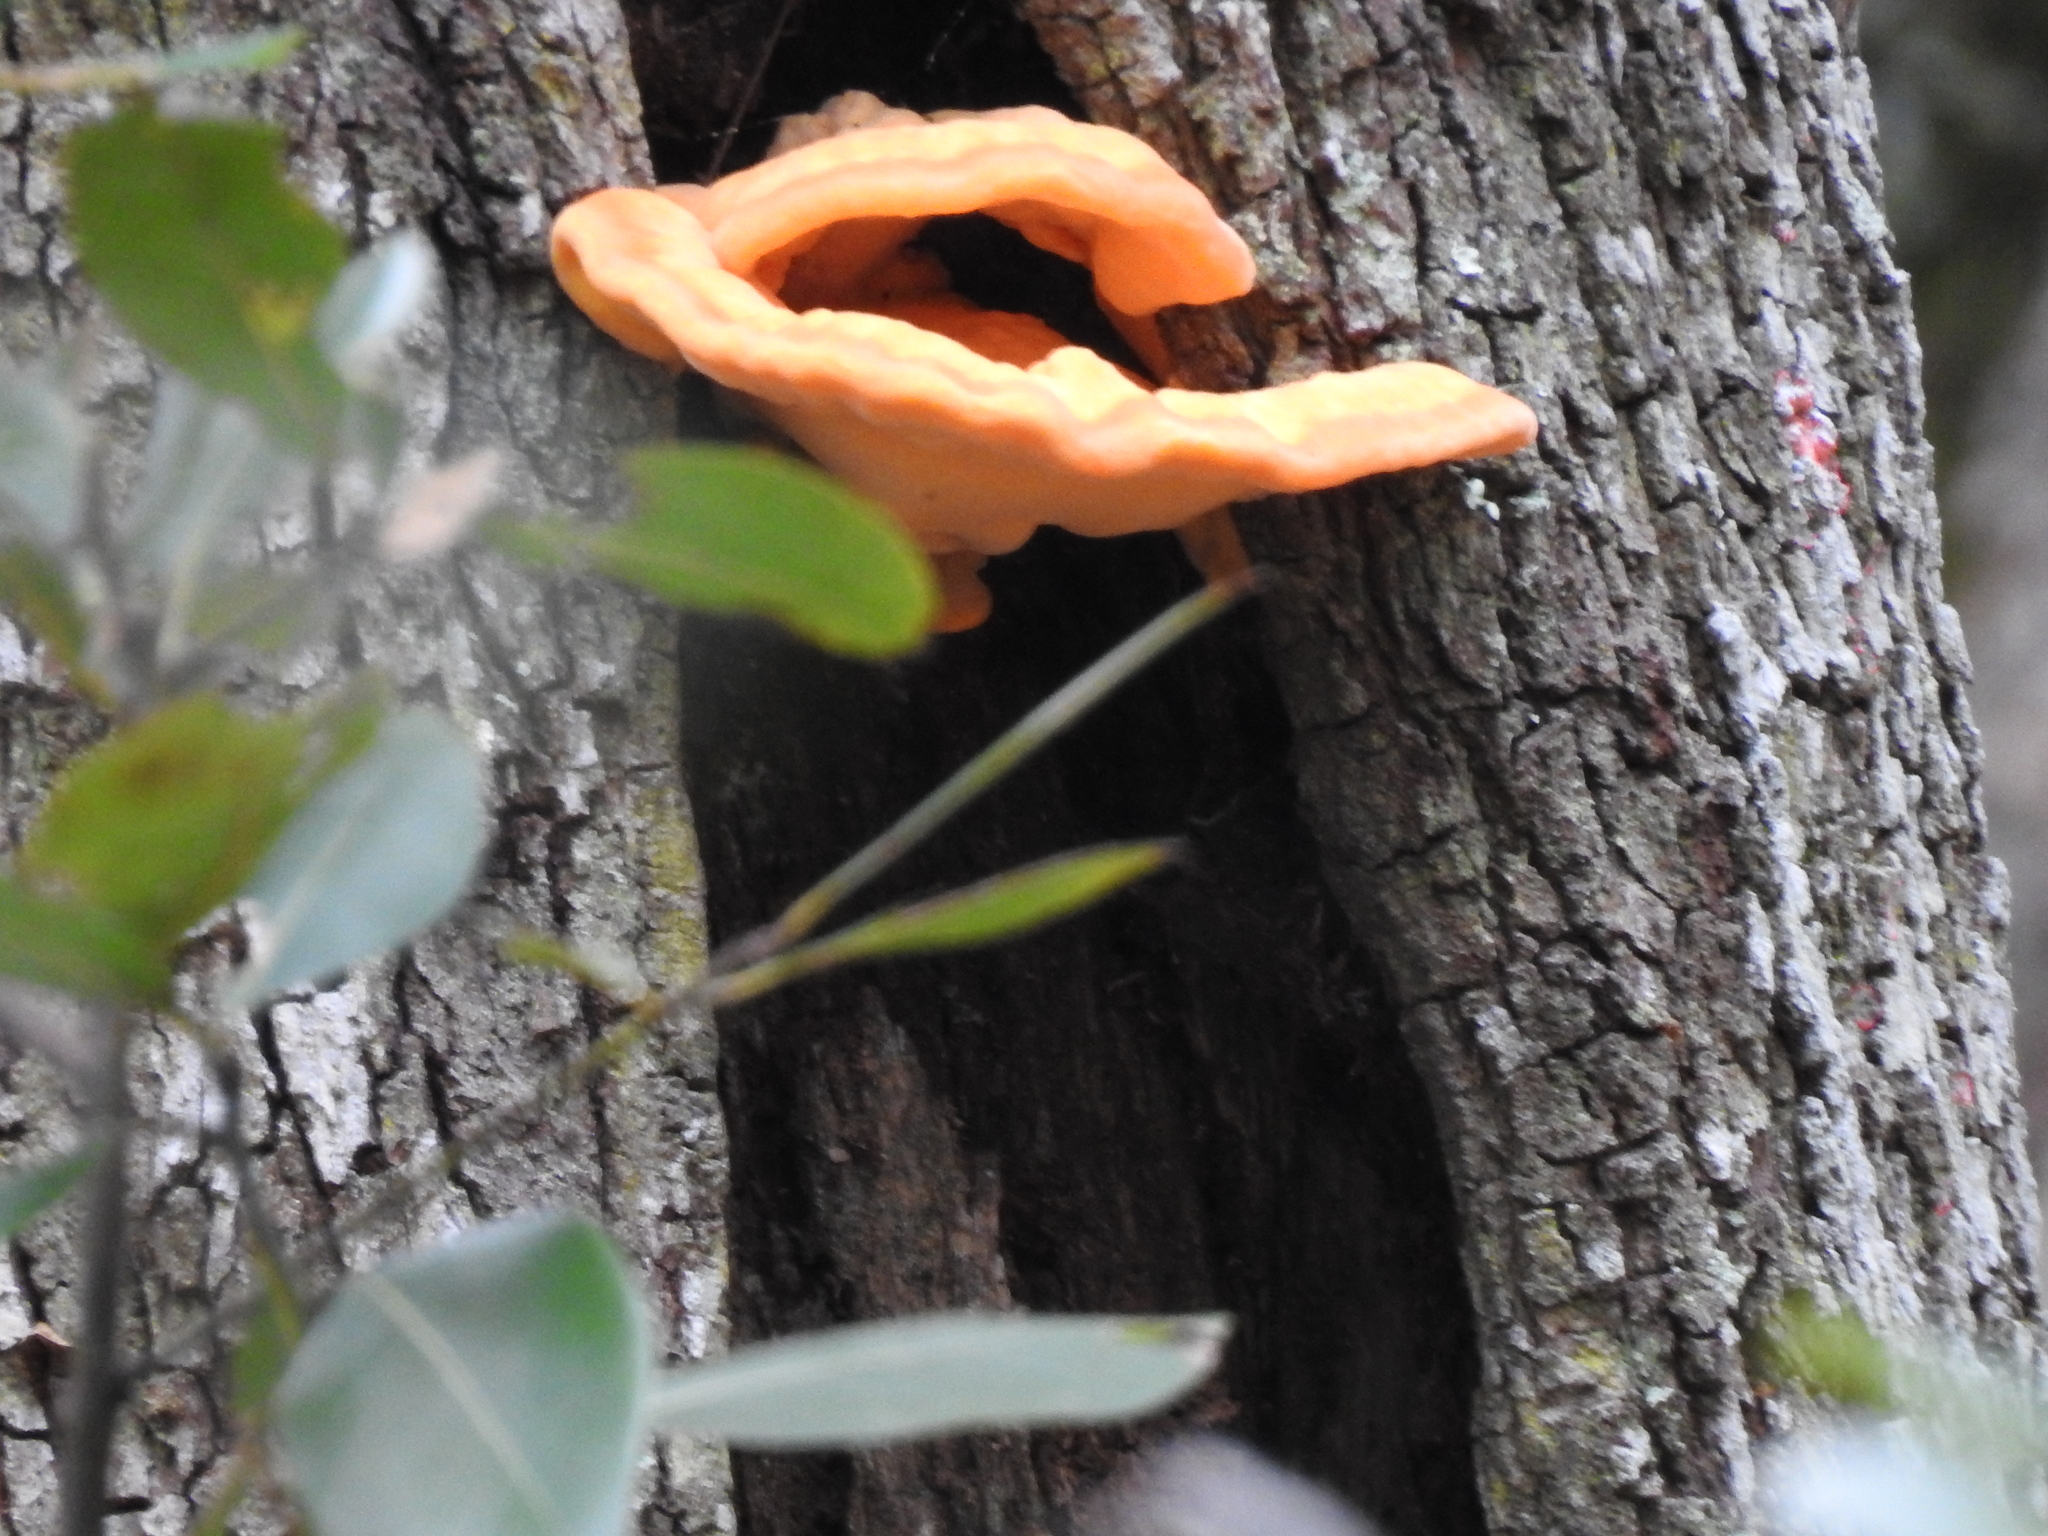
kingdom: Fungi
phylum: Basidiomycota
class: Agaricomycetes
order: Polyporales
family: Laetiporaceae
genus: Laetiporus
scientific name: Laetiporus gilbertsonii
